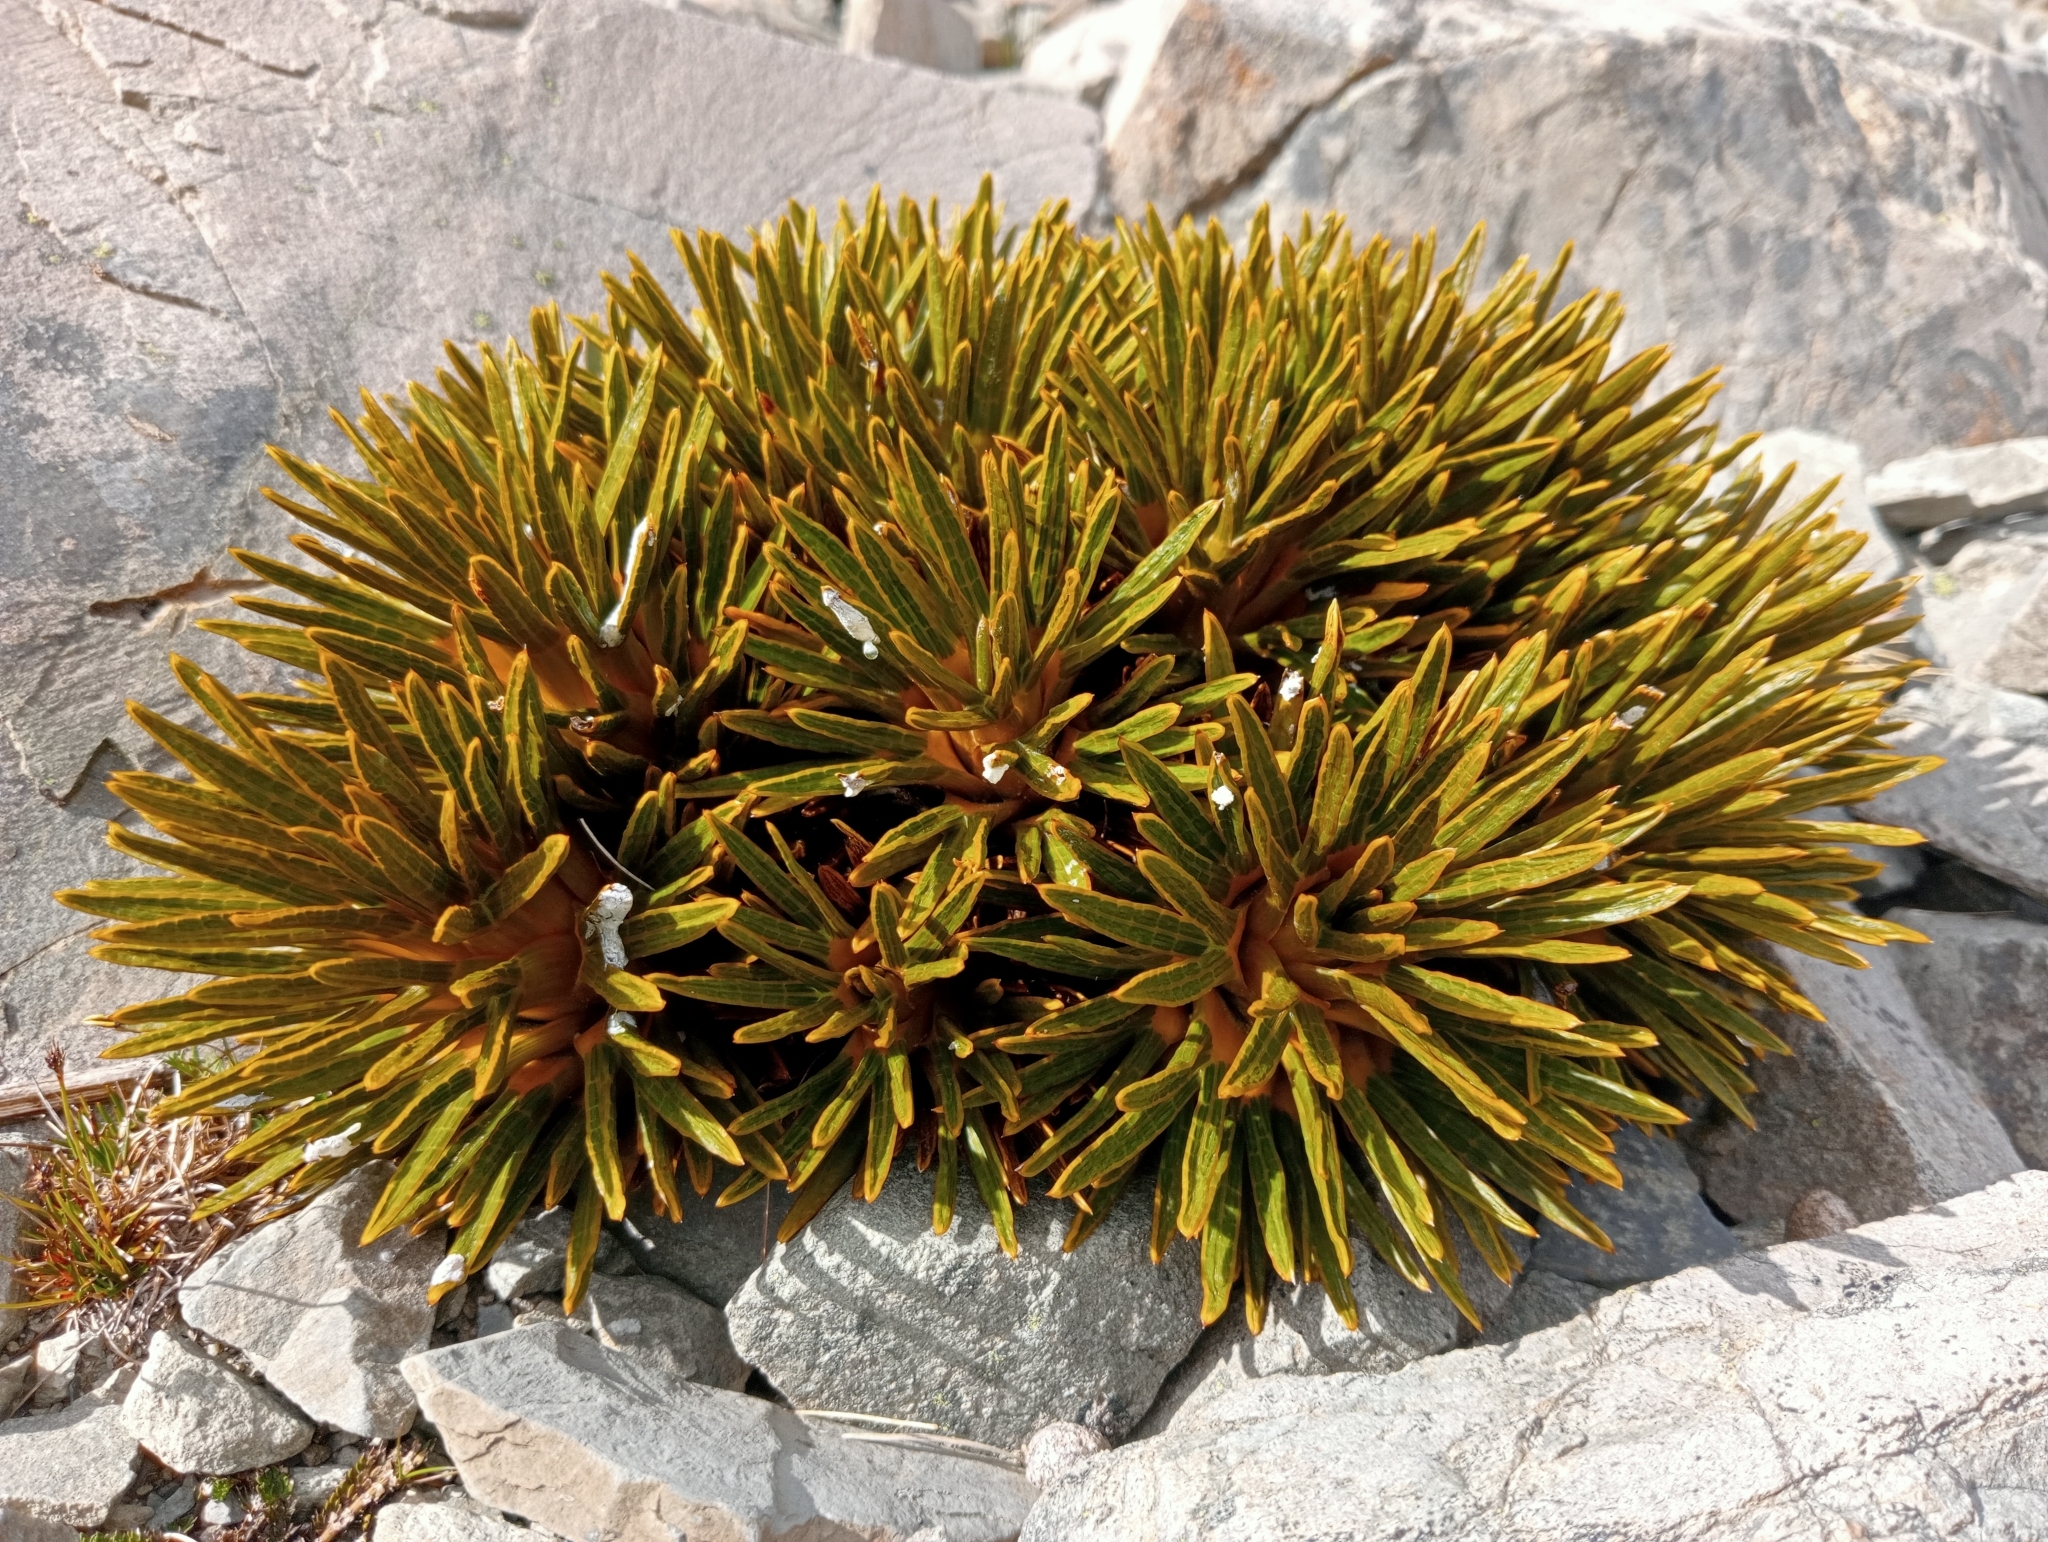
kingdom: Plantae
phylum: Tracheophyta
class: Magnoliopsida
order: Apiales
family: Apiaceae
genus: Aciphylla
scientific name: Aciphylla dobsonii
